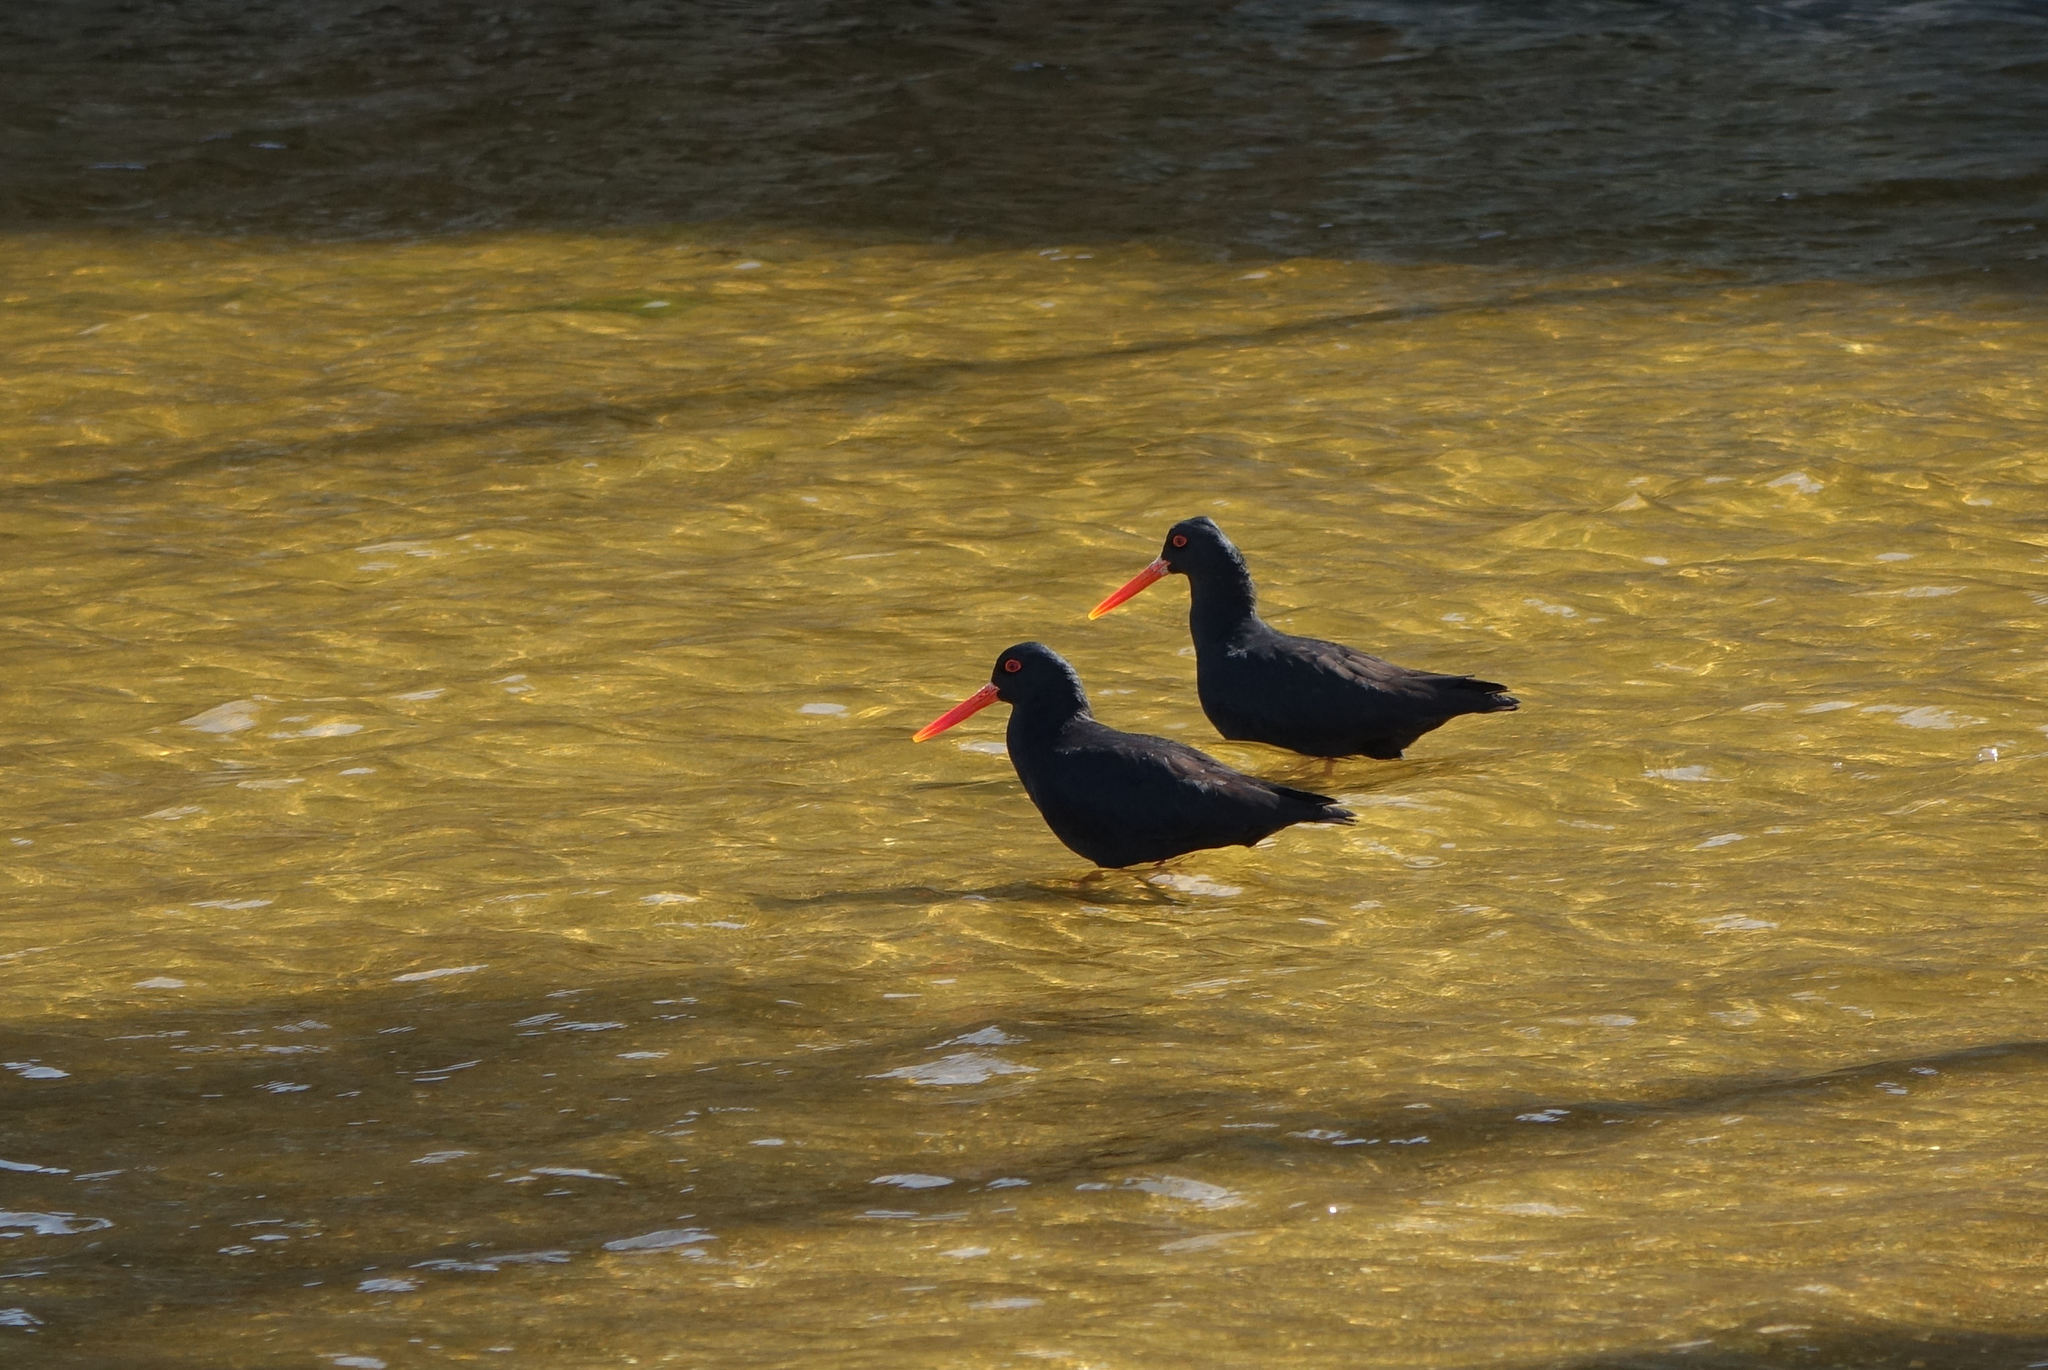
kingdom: Animalia
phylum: Chordata
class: Aves
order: Charadriiformes
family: Haematopodidae
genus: Haematopus
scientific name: Haematopus unicolor
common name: Variable oystercatcher
